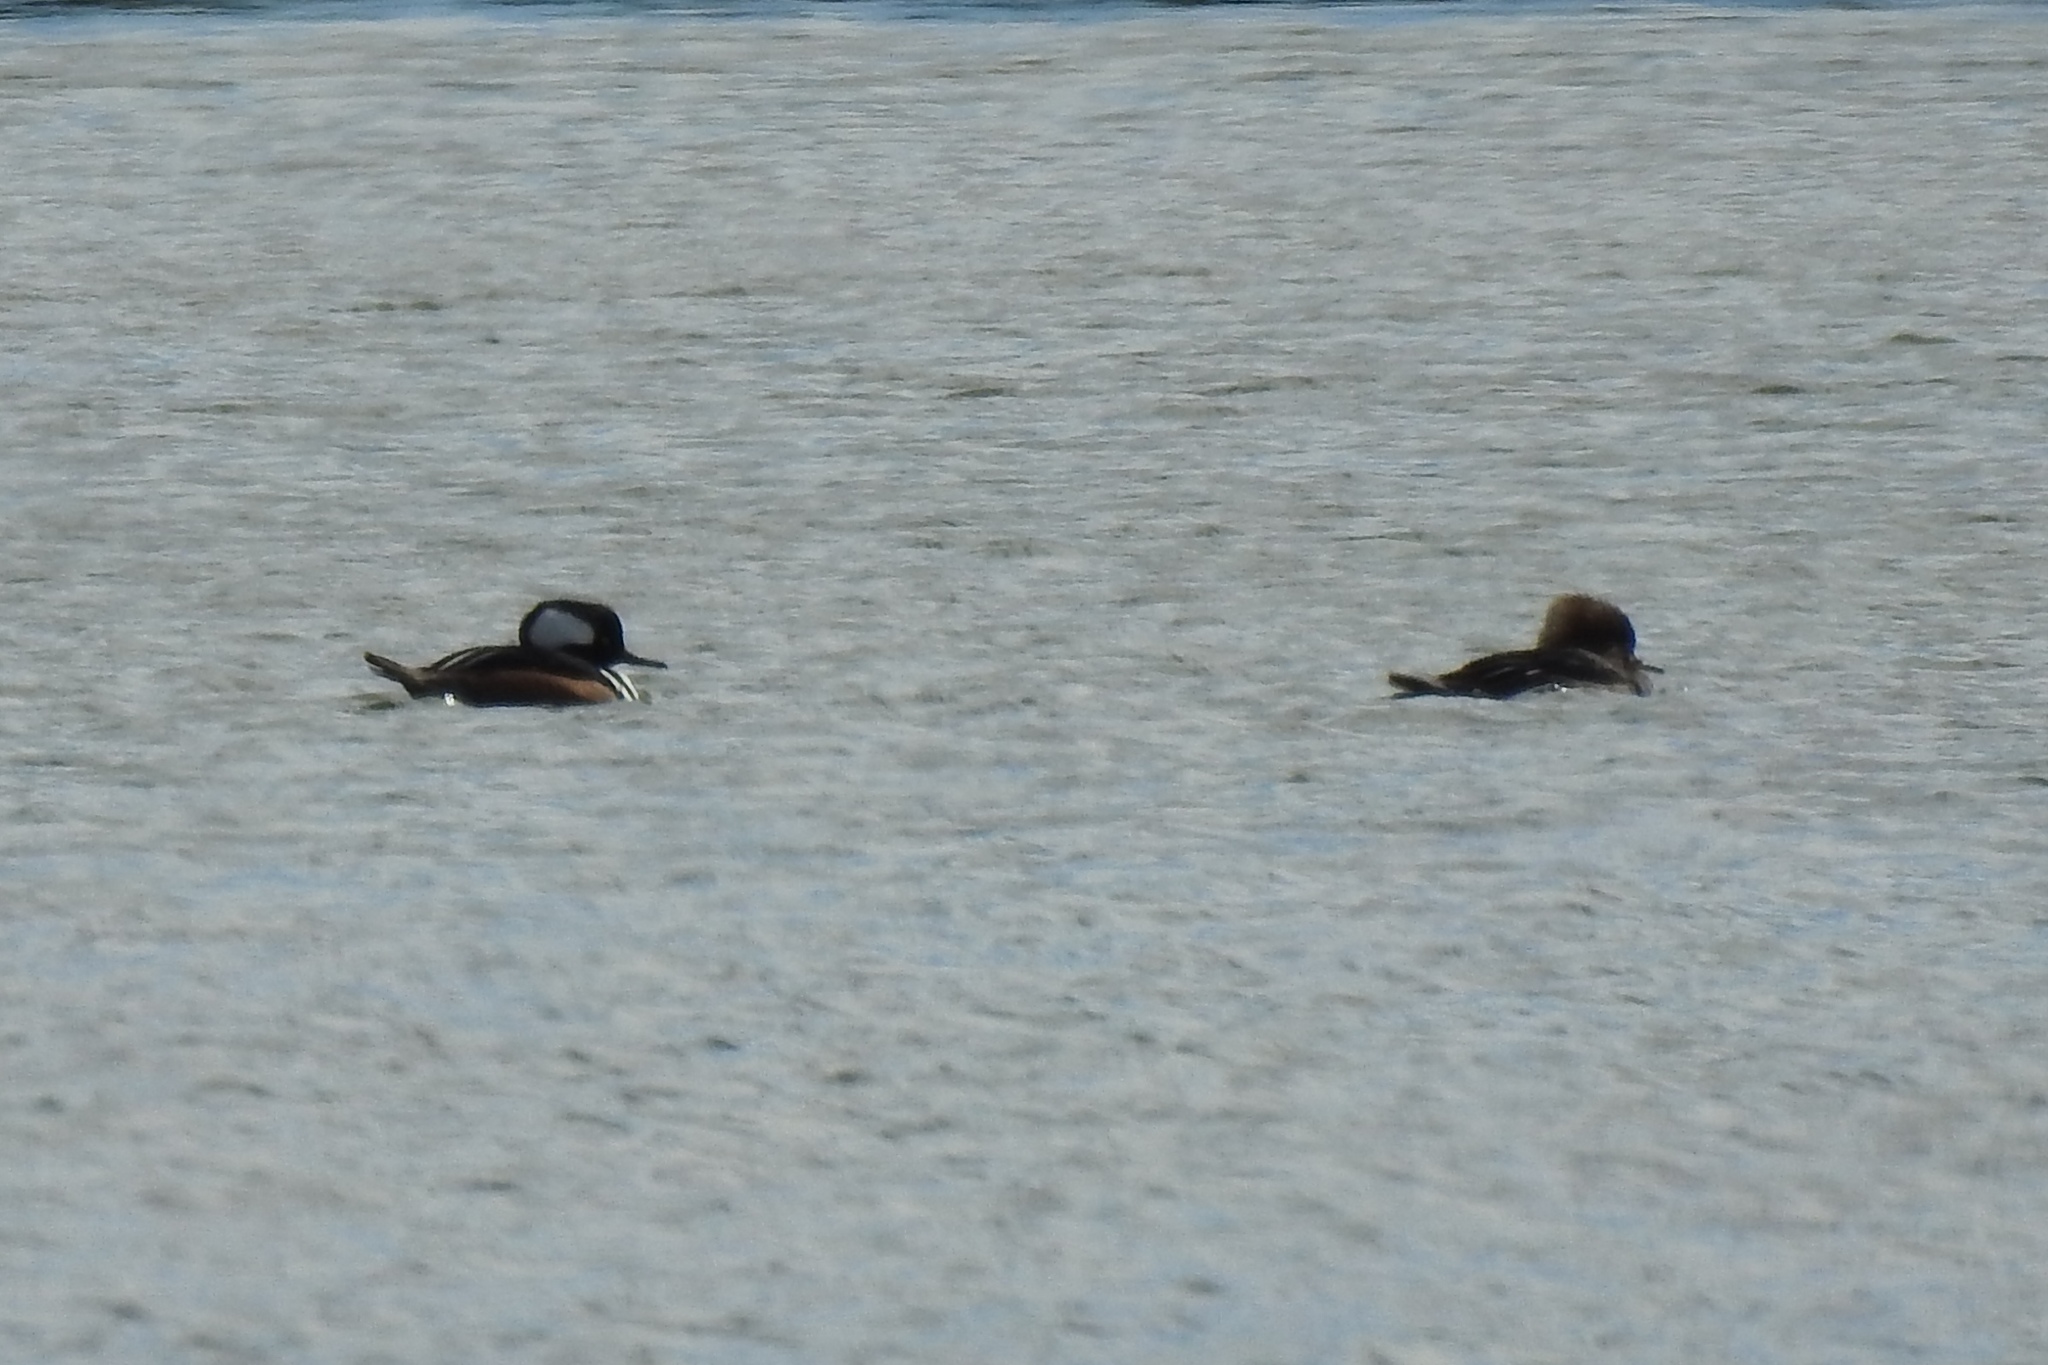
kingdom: Animalia
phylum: Chordata
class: Aves
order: Anseriformes
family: Anatidae
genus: Lophodytes
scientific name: Lophodytes cucullatus
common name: Hooded merganser
